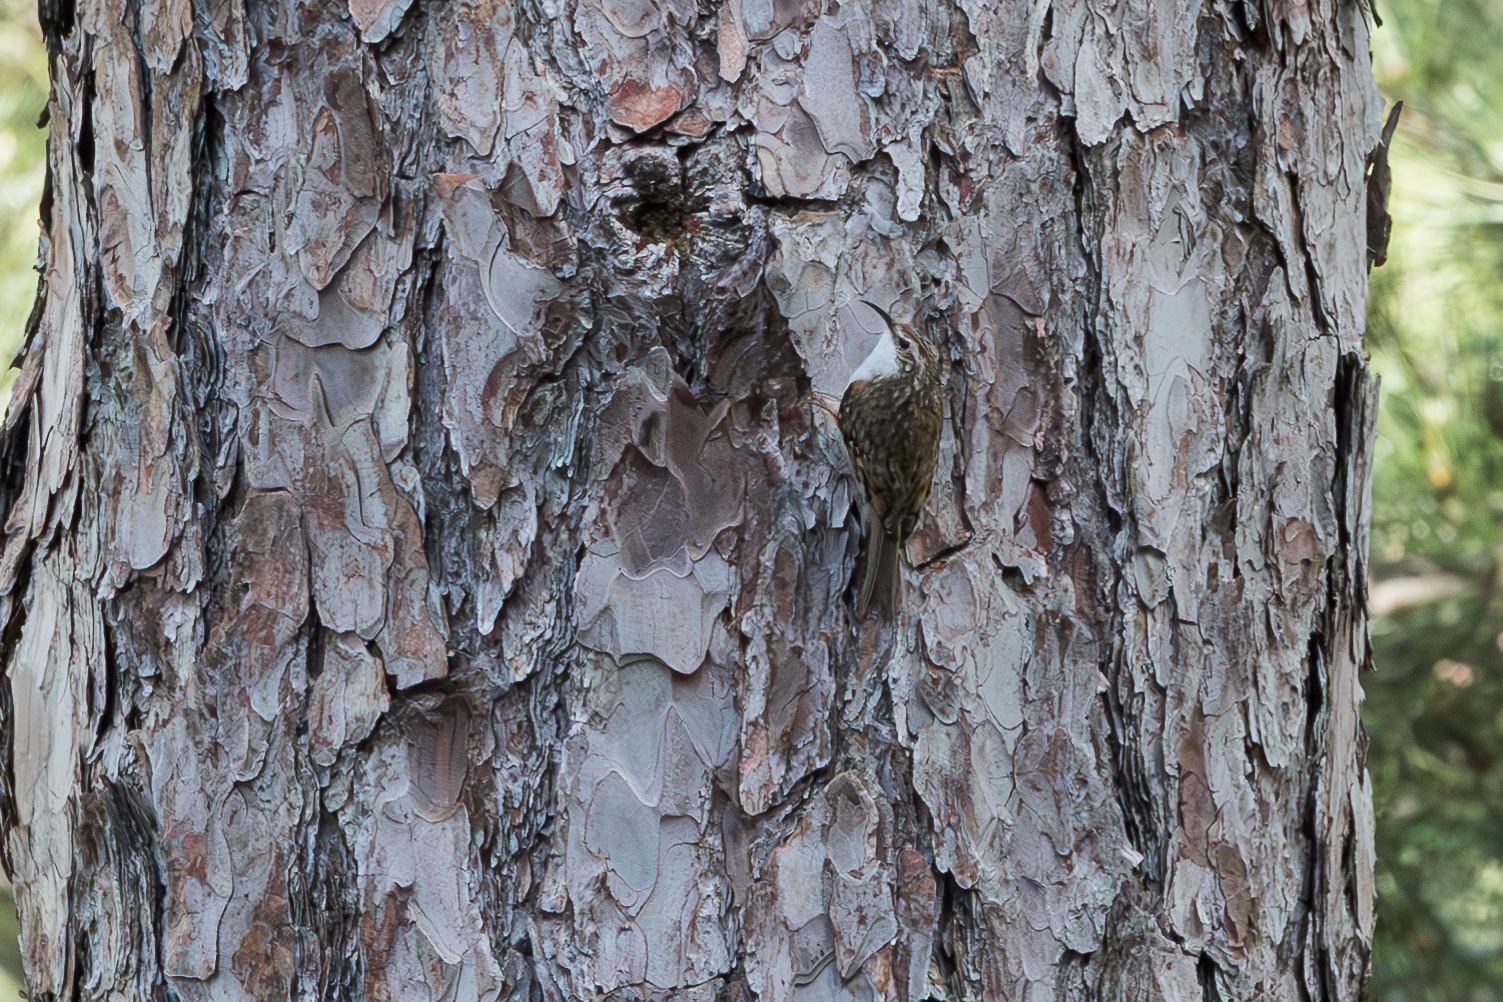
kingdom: Animalia
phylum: Chordata
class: Aves
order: Passeriformes
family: Certhiidae
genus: Certhia
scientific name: Certhia familiaris
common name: Eurasian treecreeper
